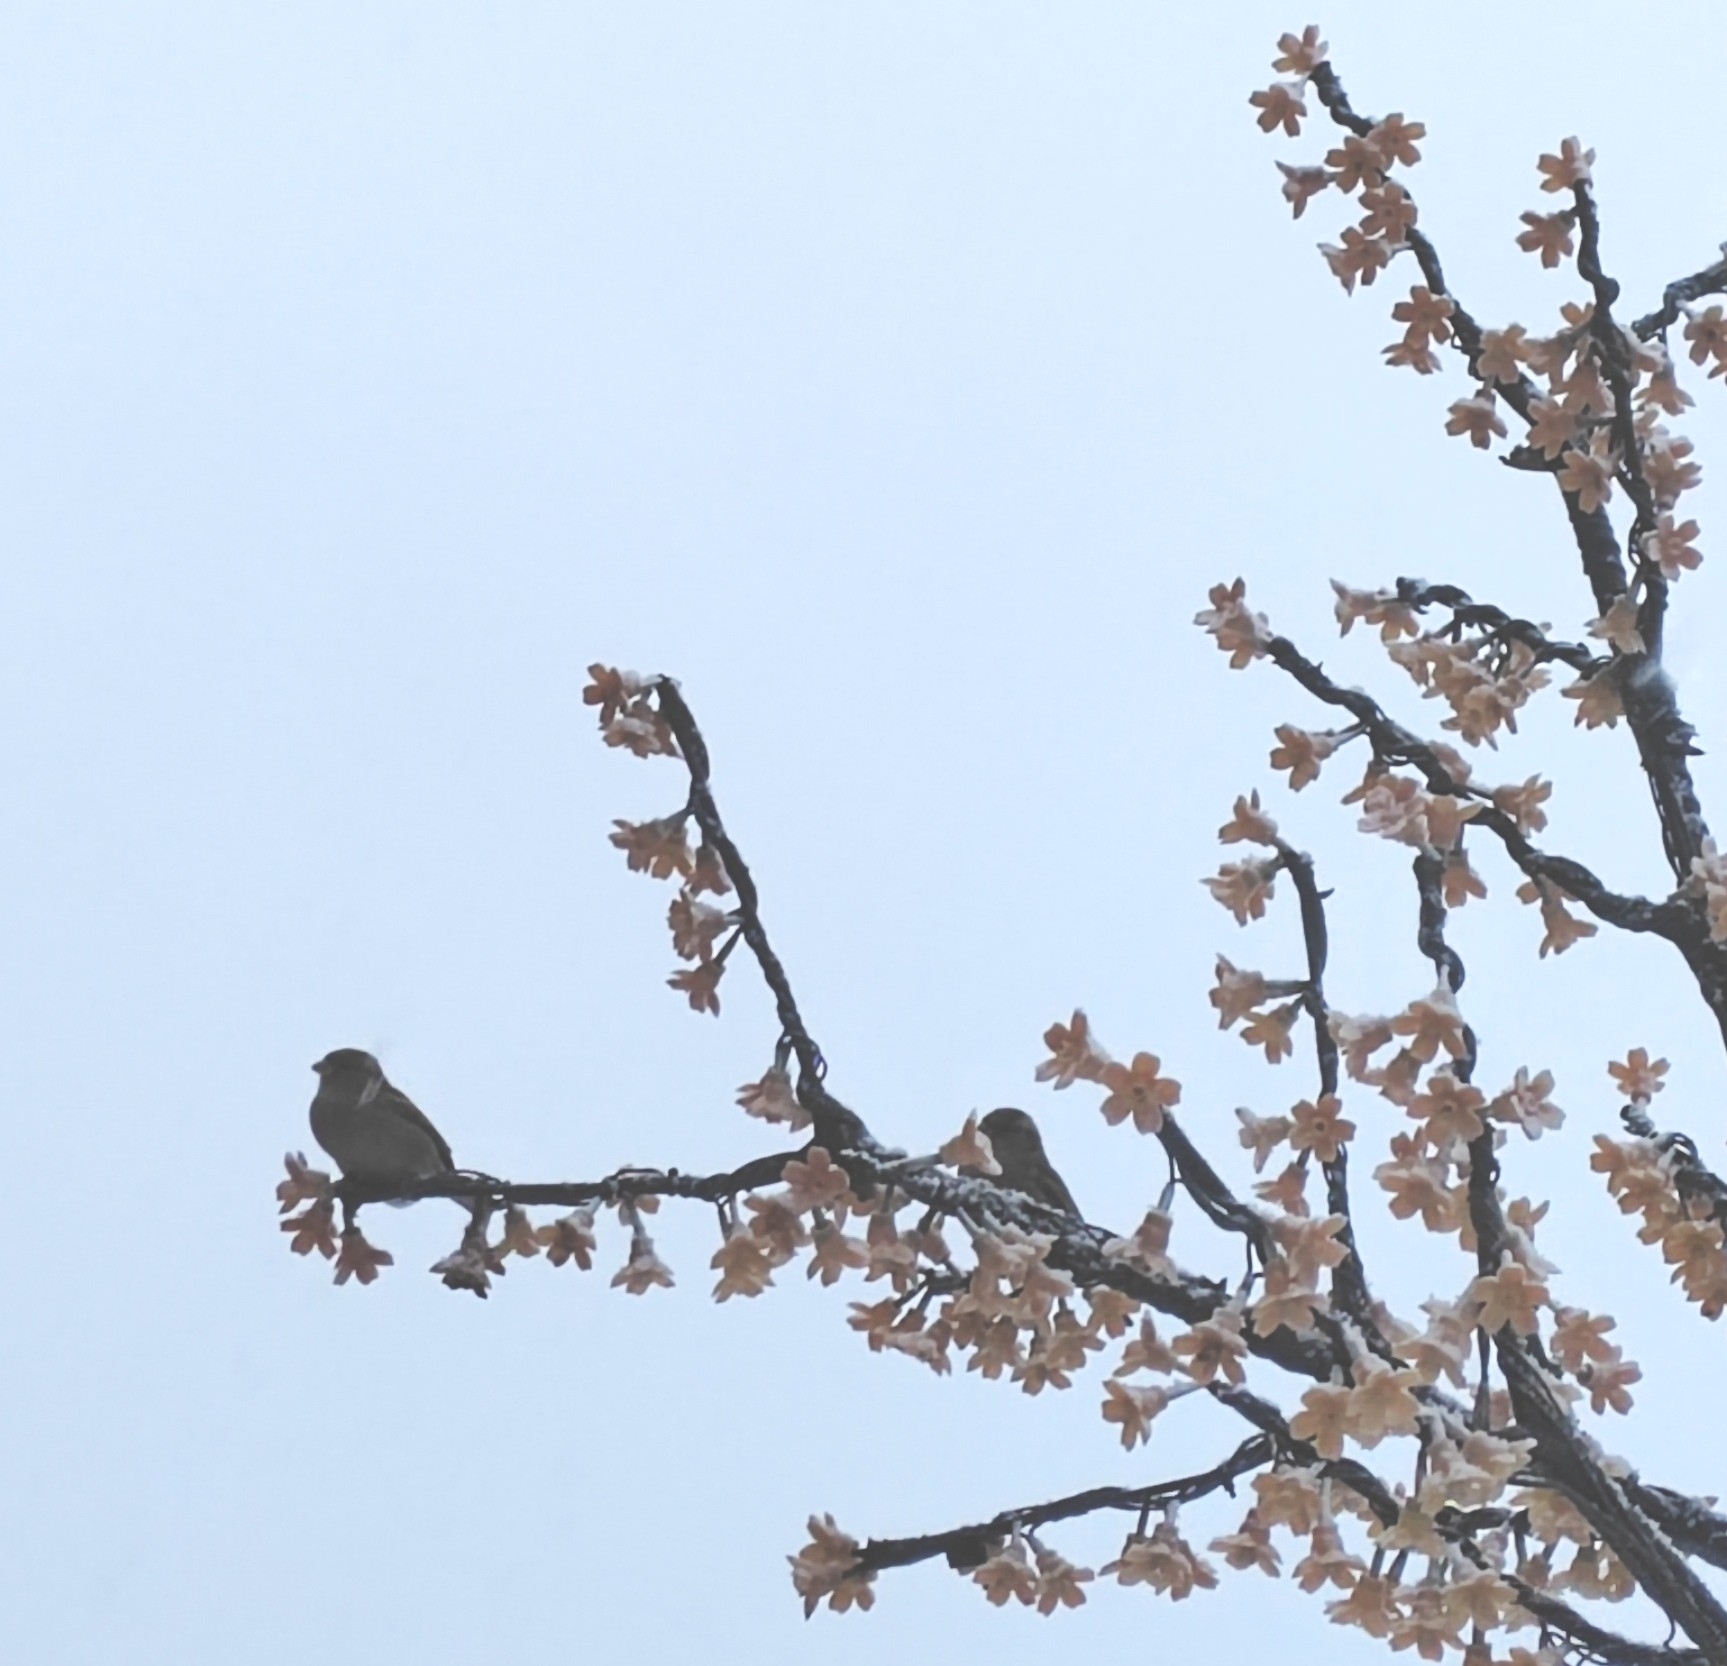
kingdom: Animalia
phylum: Chordata
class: Aves
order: Passeriformes
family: Passeridae
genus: Passer
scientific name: Passer domesticus
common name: House sparrow
